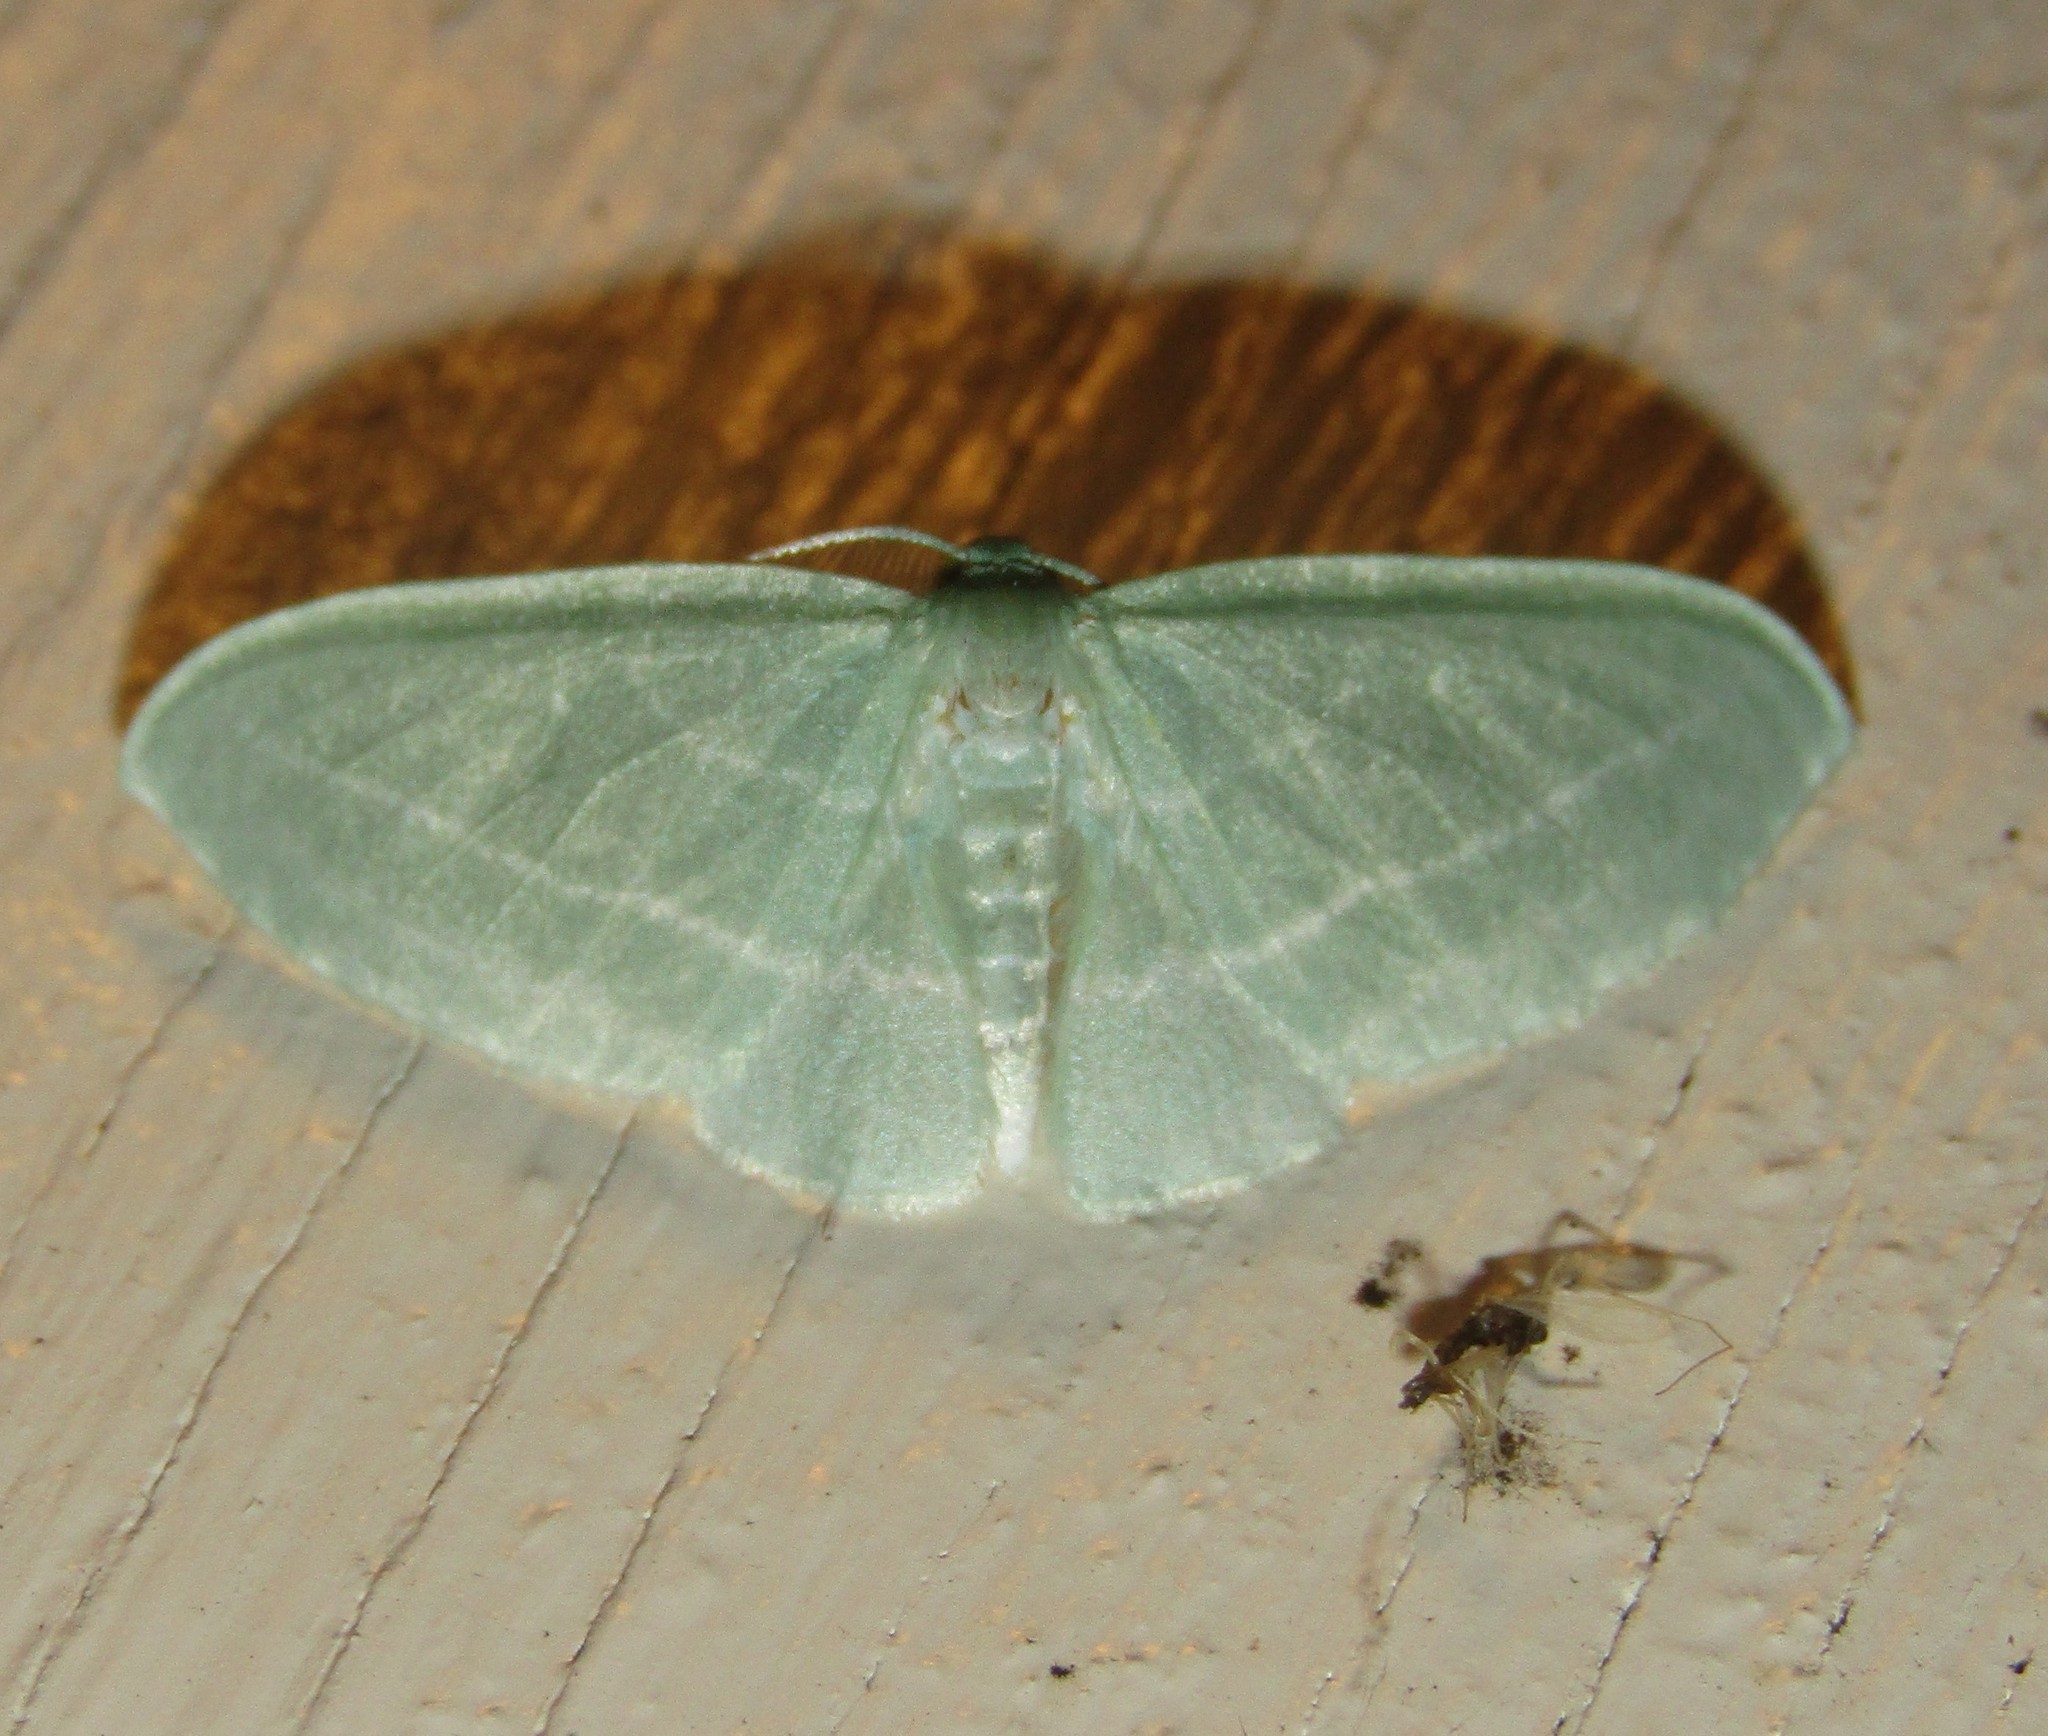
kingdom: Animalia
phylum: Arthropoda
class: Insecta
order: Lepidoptera
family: Geometridae
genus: Dyspteris
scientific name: Dyspteris abortivaria
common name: Bad-wing
